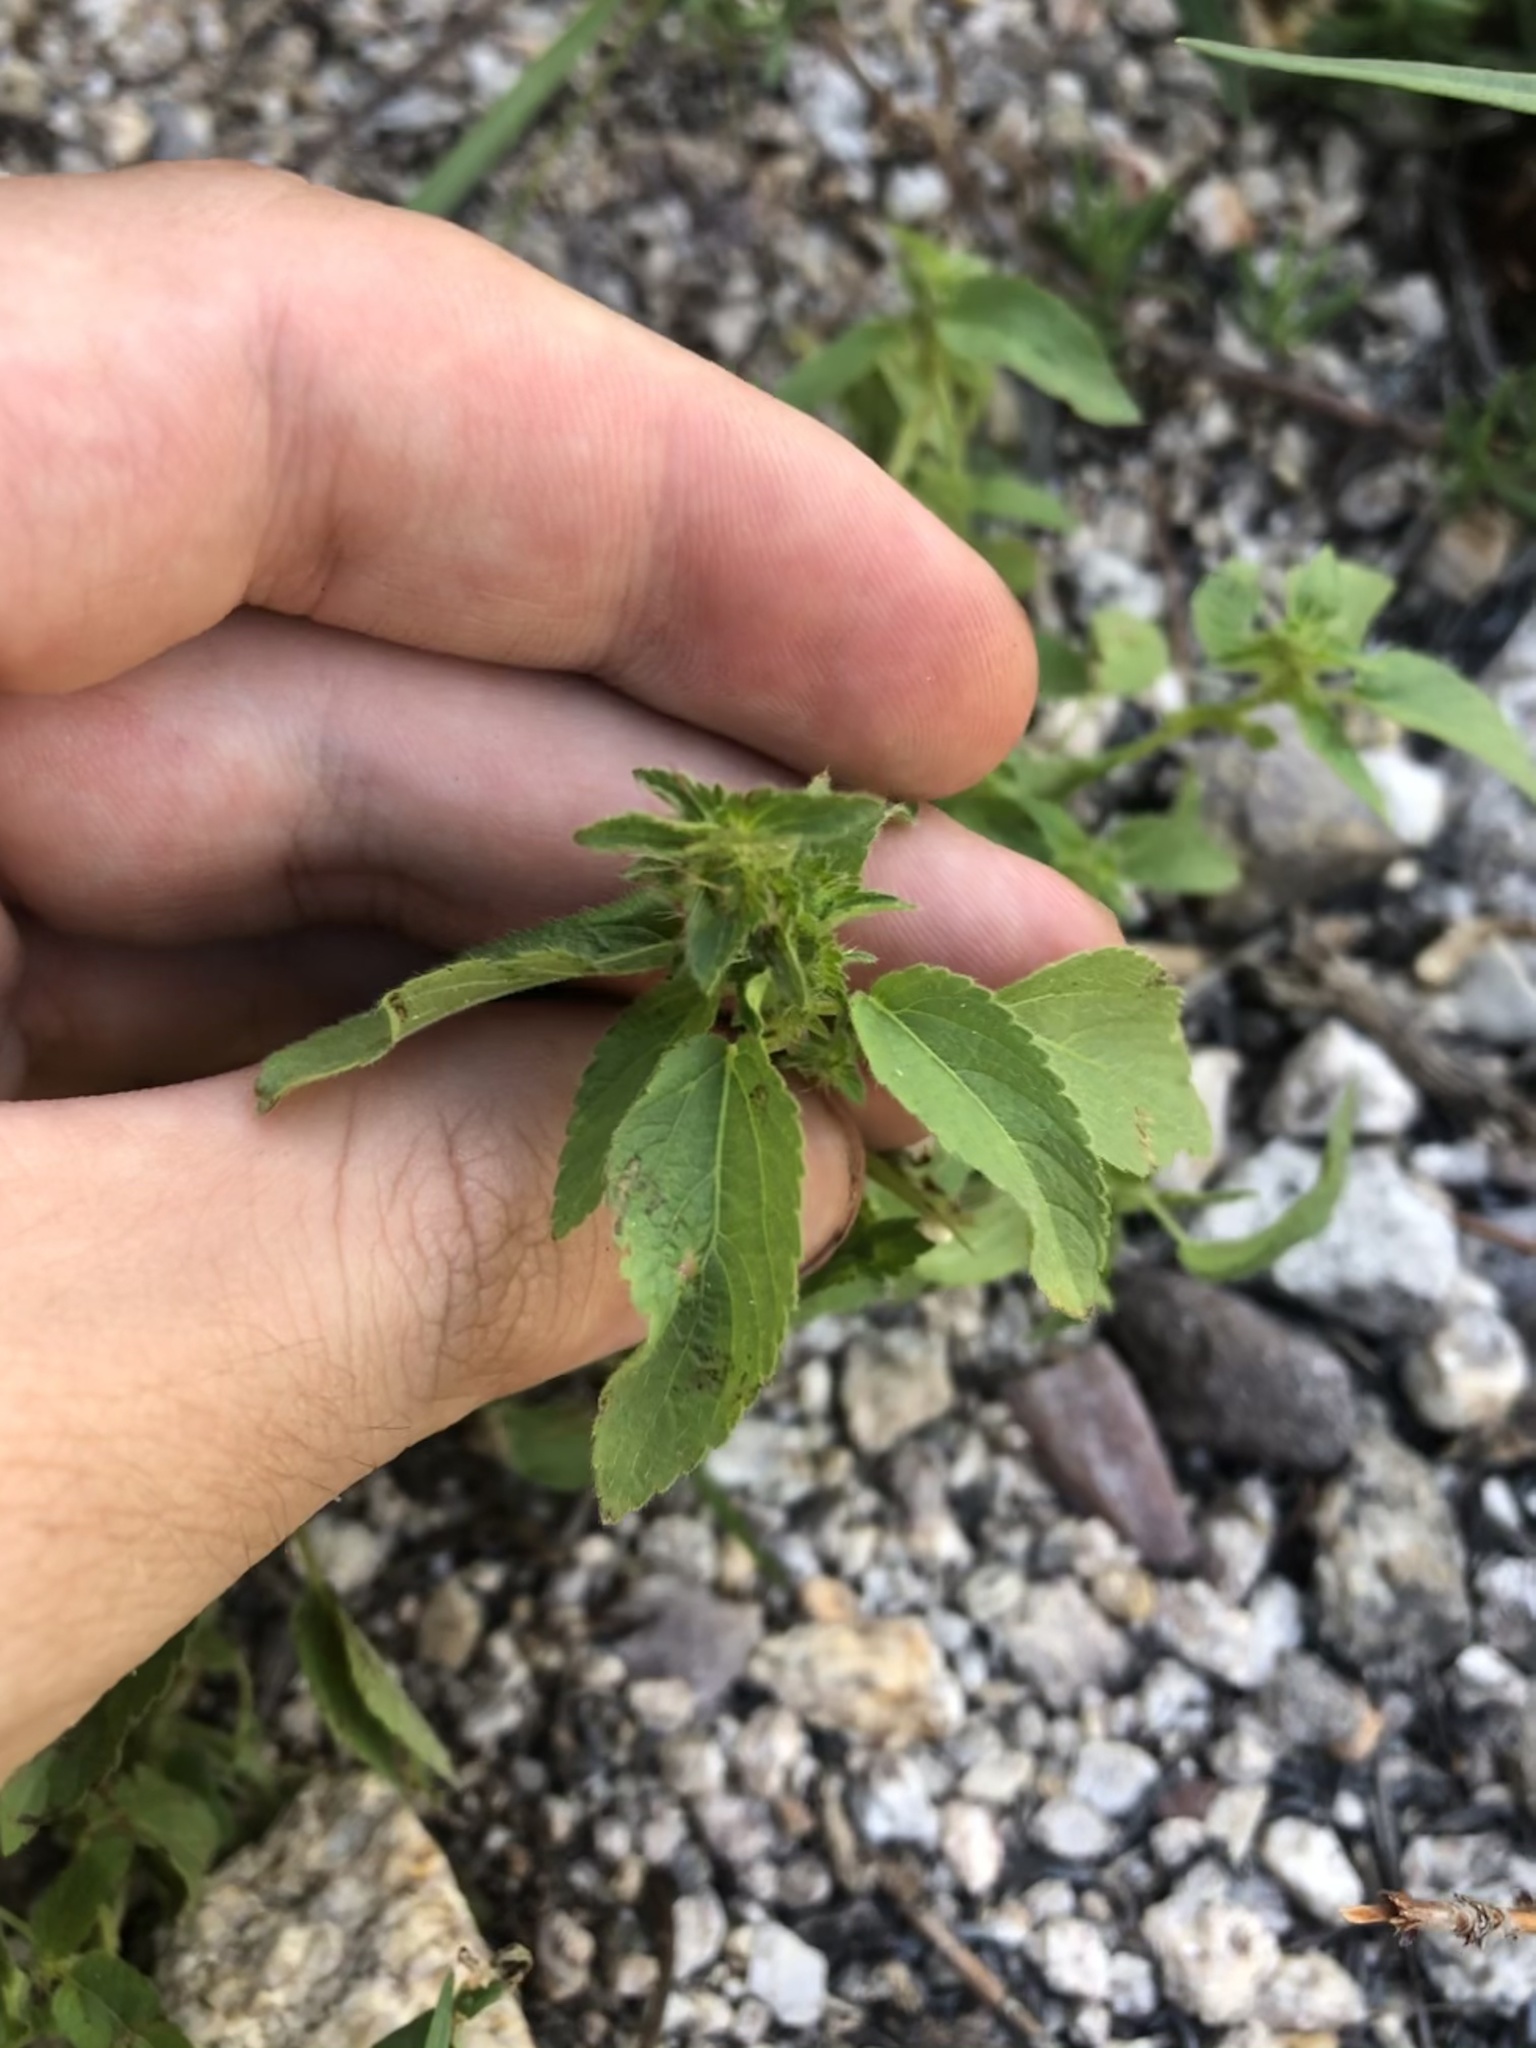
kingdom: Plantae
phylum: Tracheophyta
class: Magnoliopsida
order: Malpighiales
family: Euphorbiaceae
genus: Acalypha
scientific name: Acalypha neomexicana
